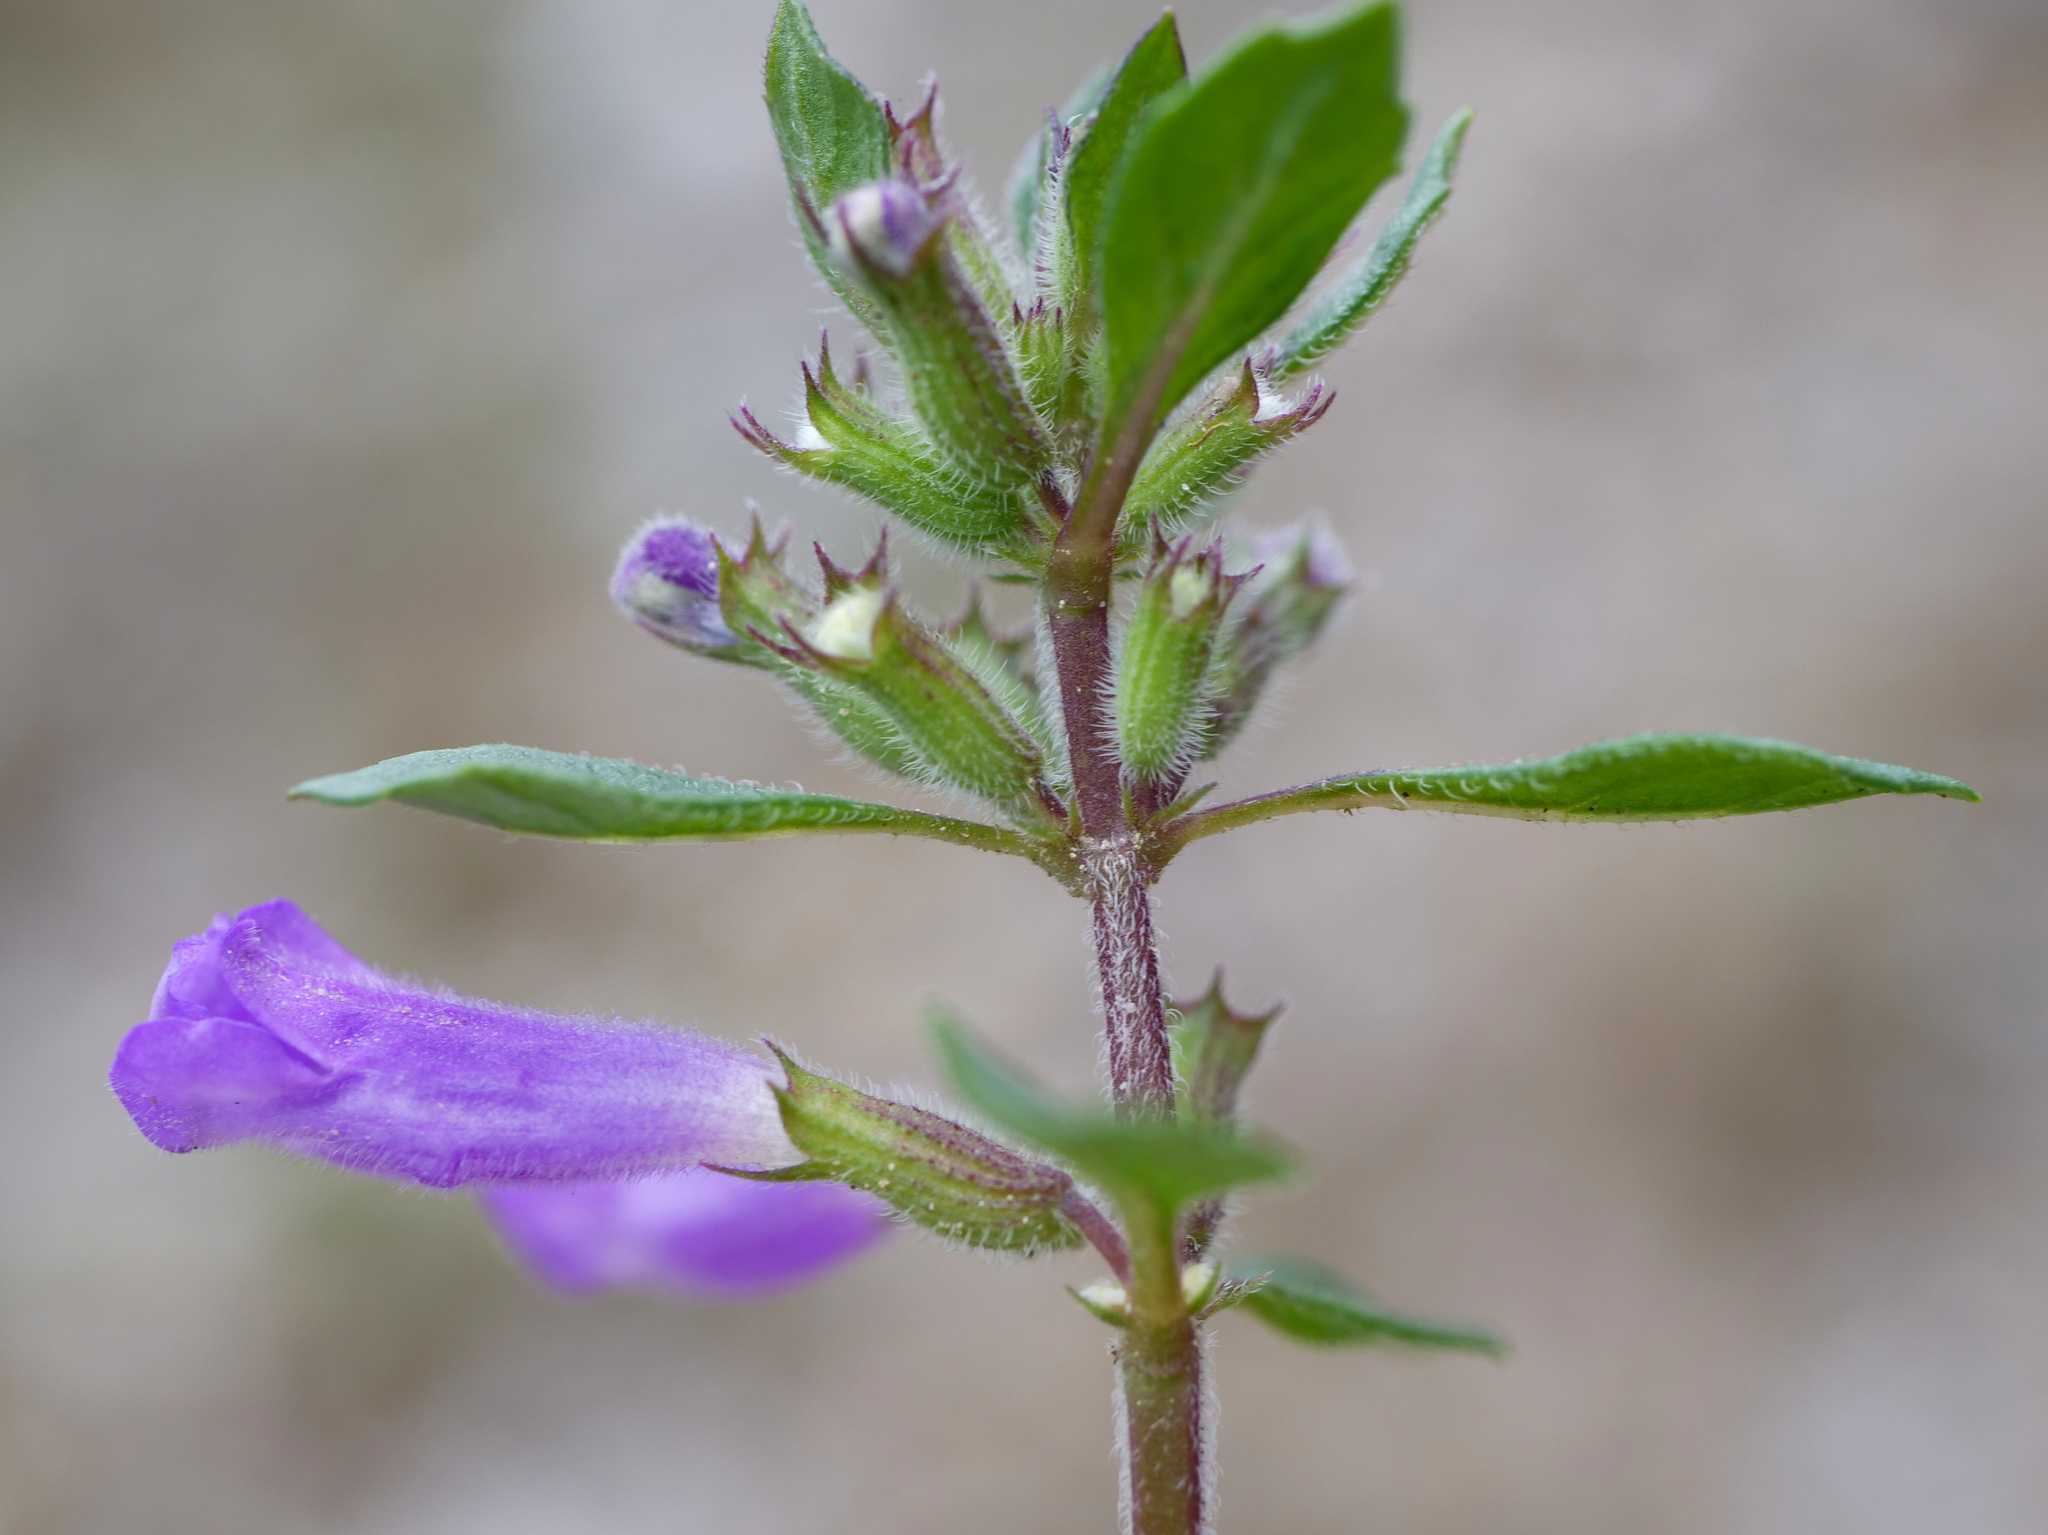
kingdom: Plantae
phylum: Tracheophyta
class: Magnoliopsida
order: Lamiales
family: Lamiaceae
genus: Clinopodium
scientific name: Clinopodium alpinum
